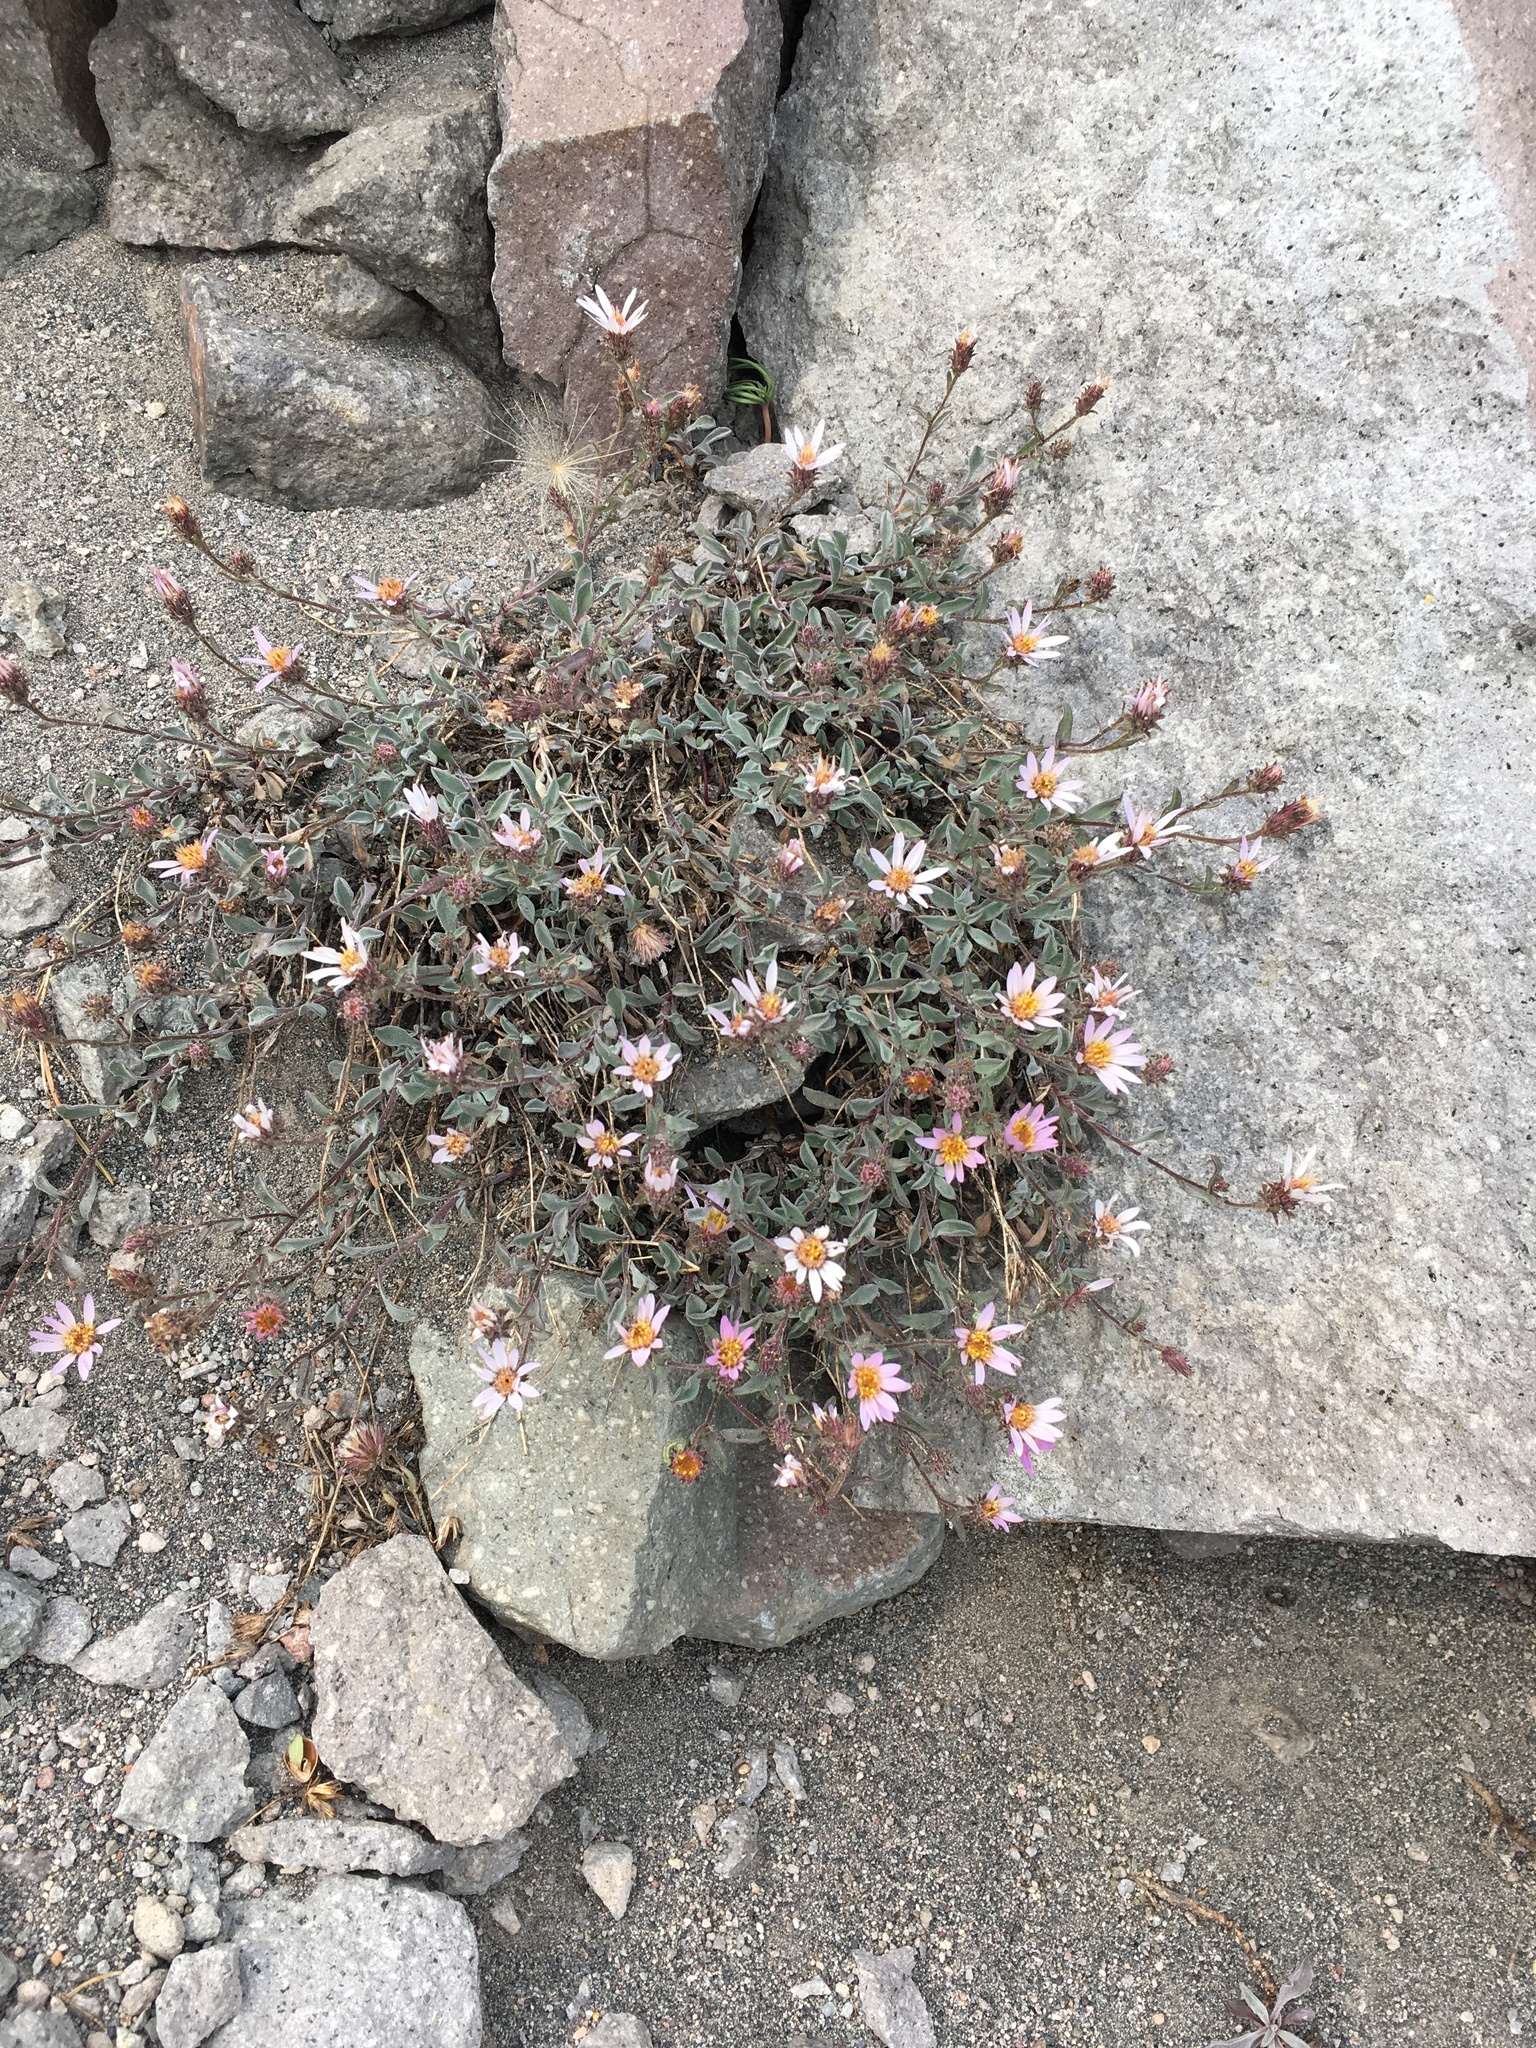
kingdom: Plantae
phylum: Tracheophyta
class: Magnoliopsida
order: Asterales
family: Asteraceae
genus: Dieteria
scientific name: Dieteria canescens
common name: Hoary-aster
